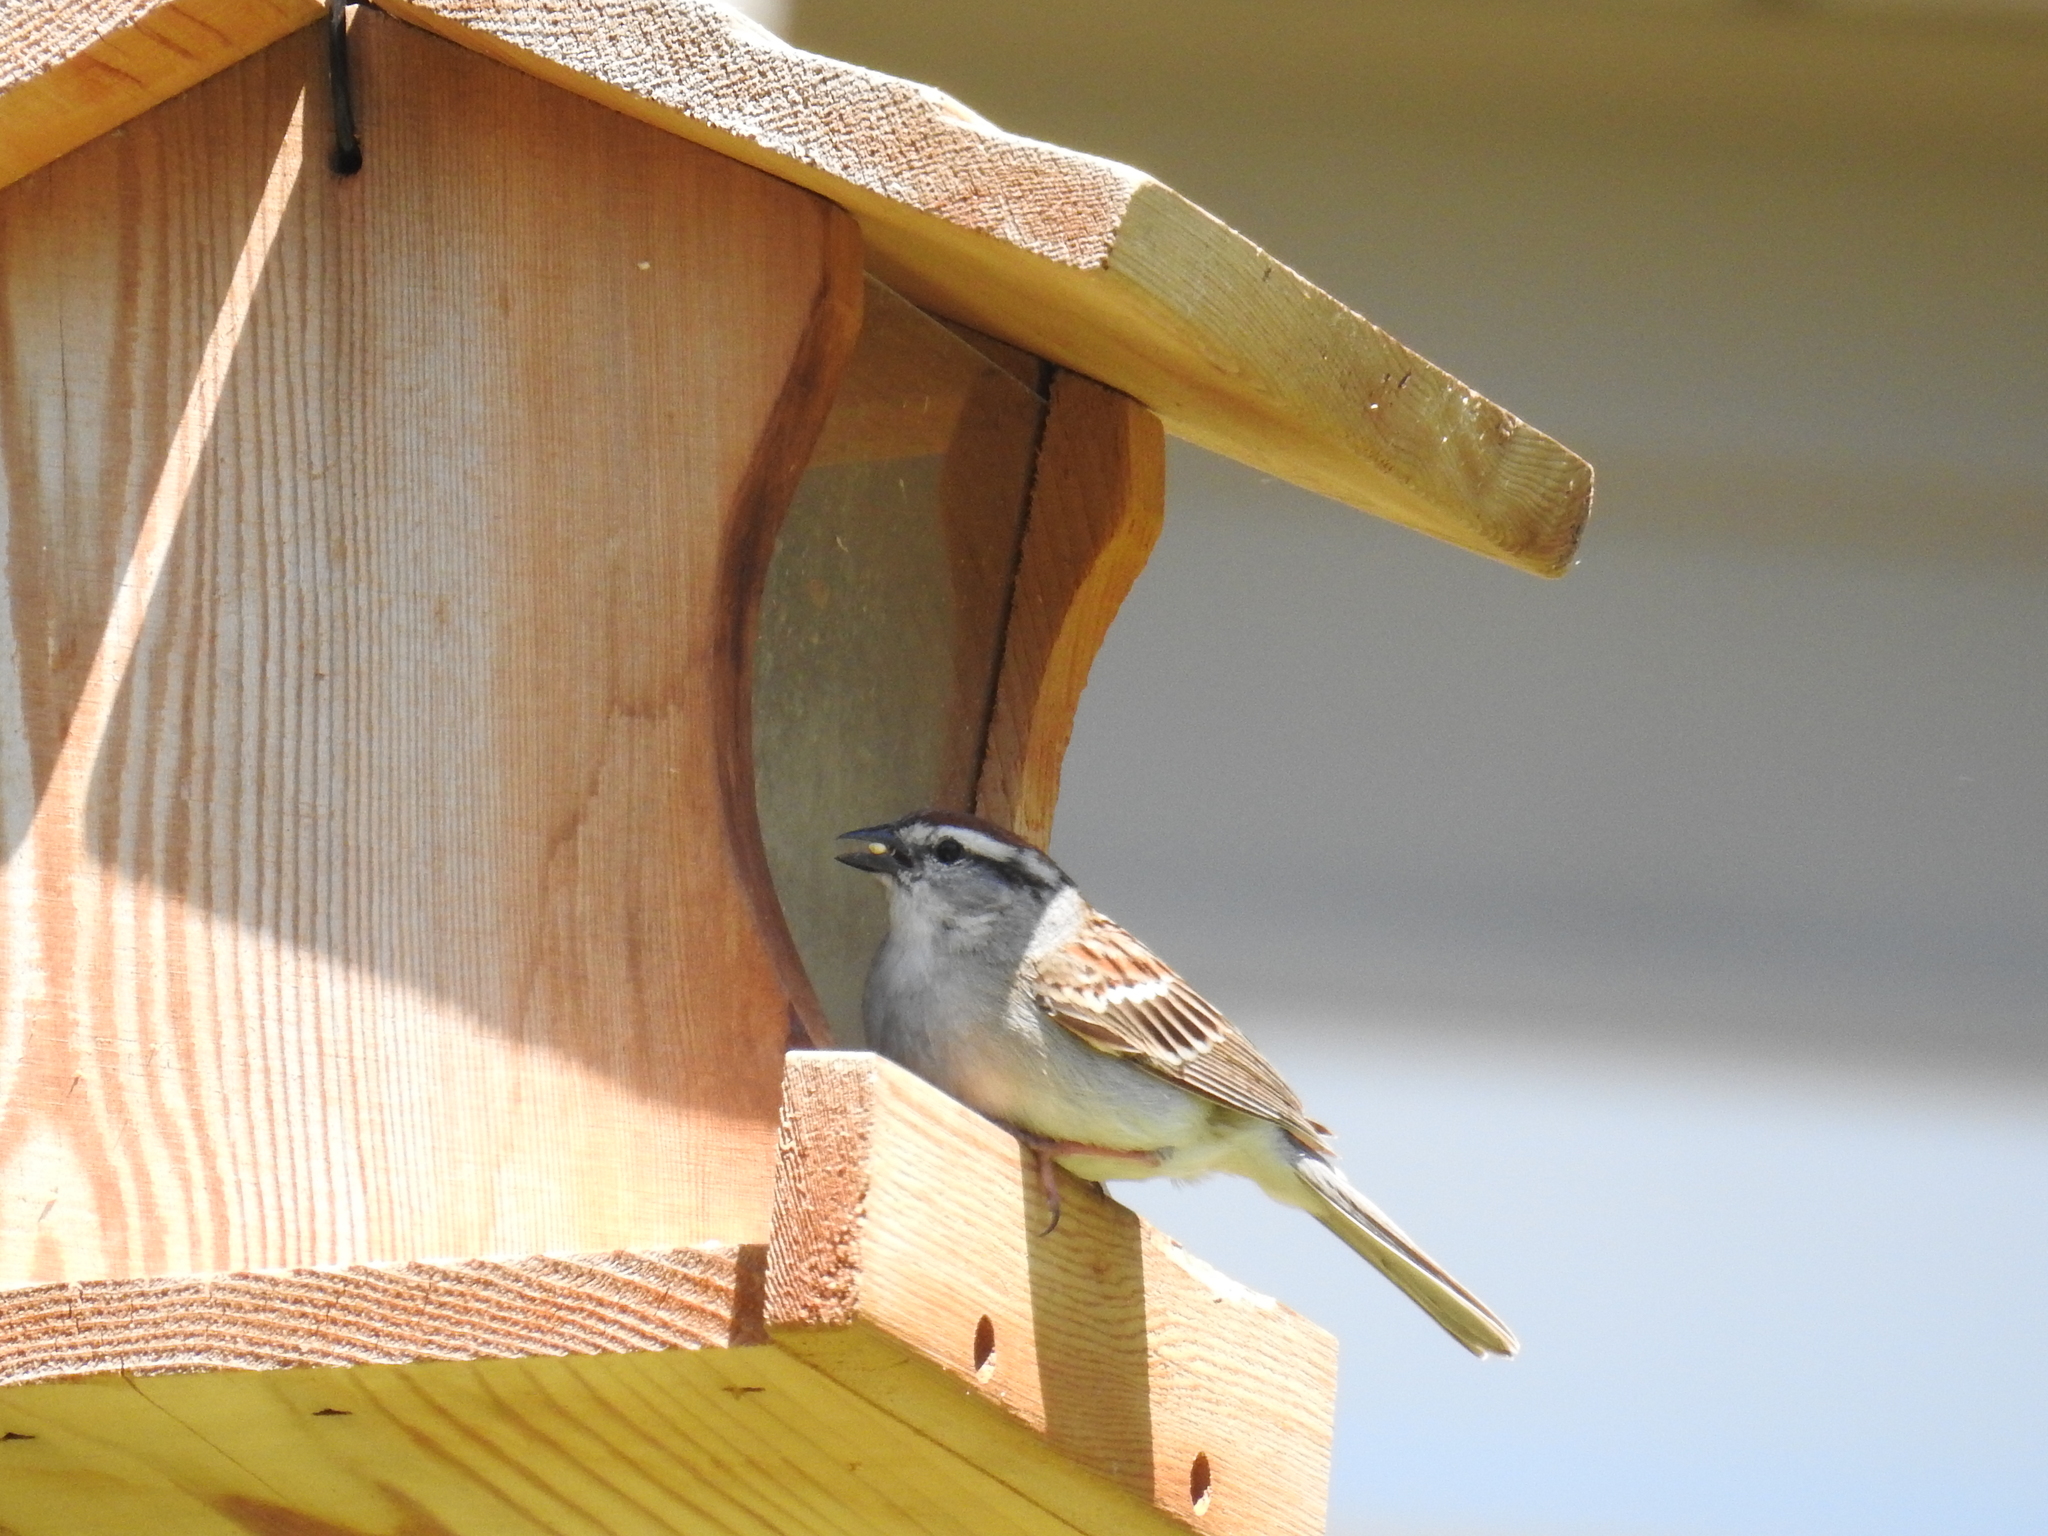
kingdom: Animalia
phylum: Chordata
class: Aves
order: Passeriformes
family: Passerellidae
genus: Spizella
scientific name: Spizella passerina
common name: Chipping sparrow
